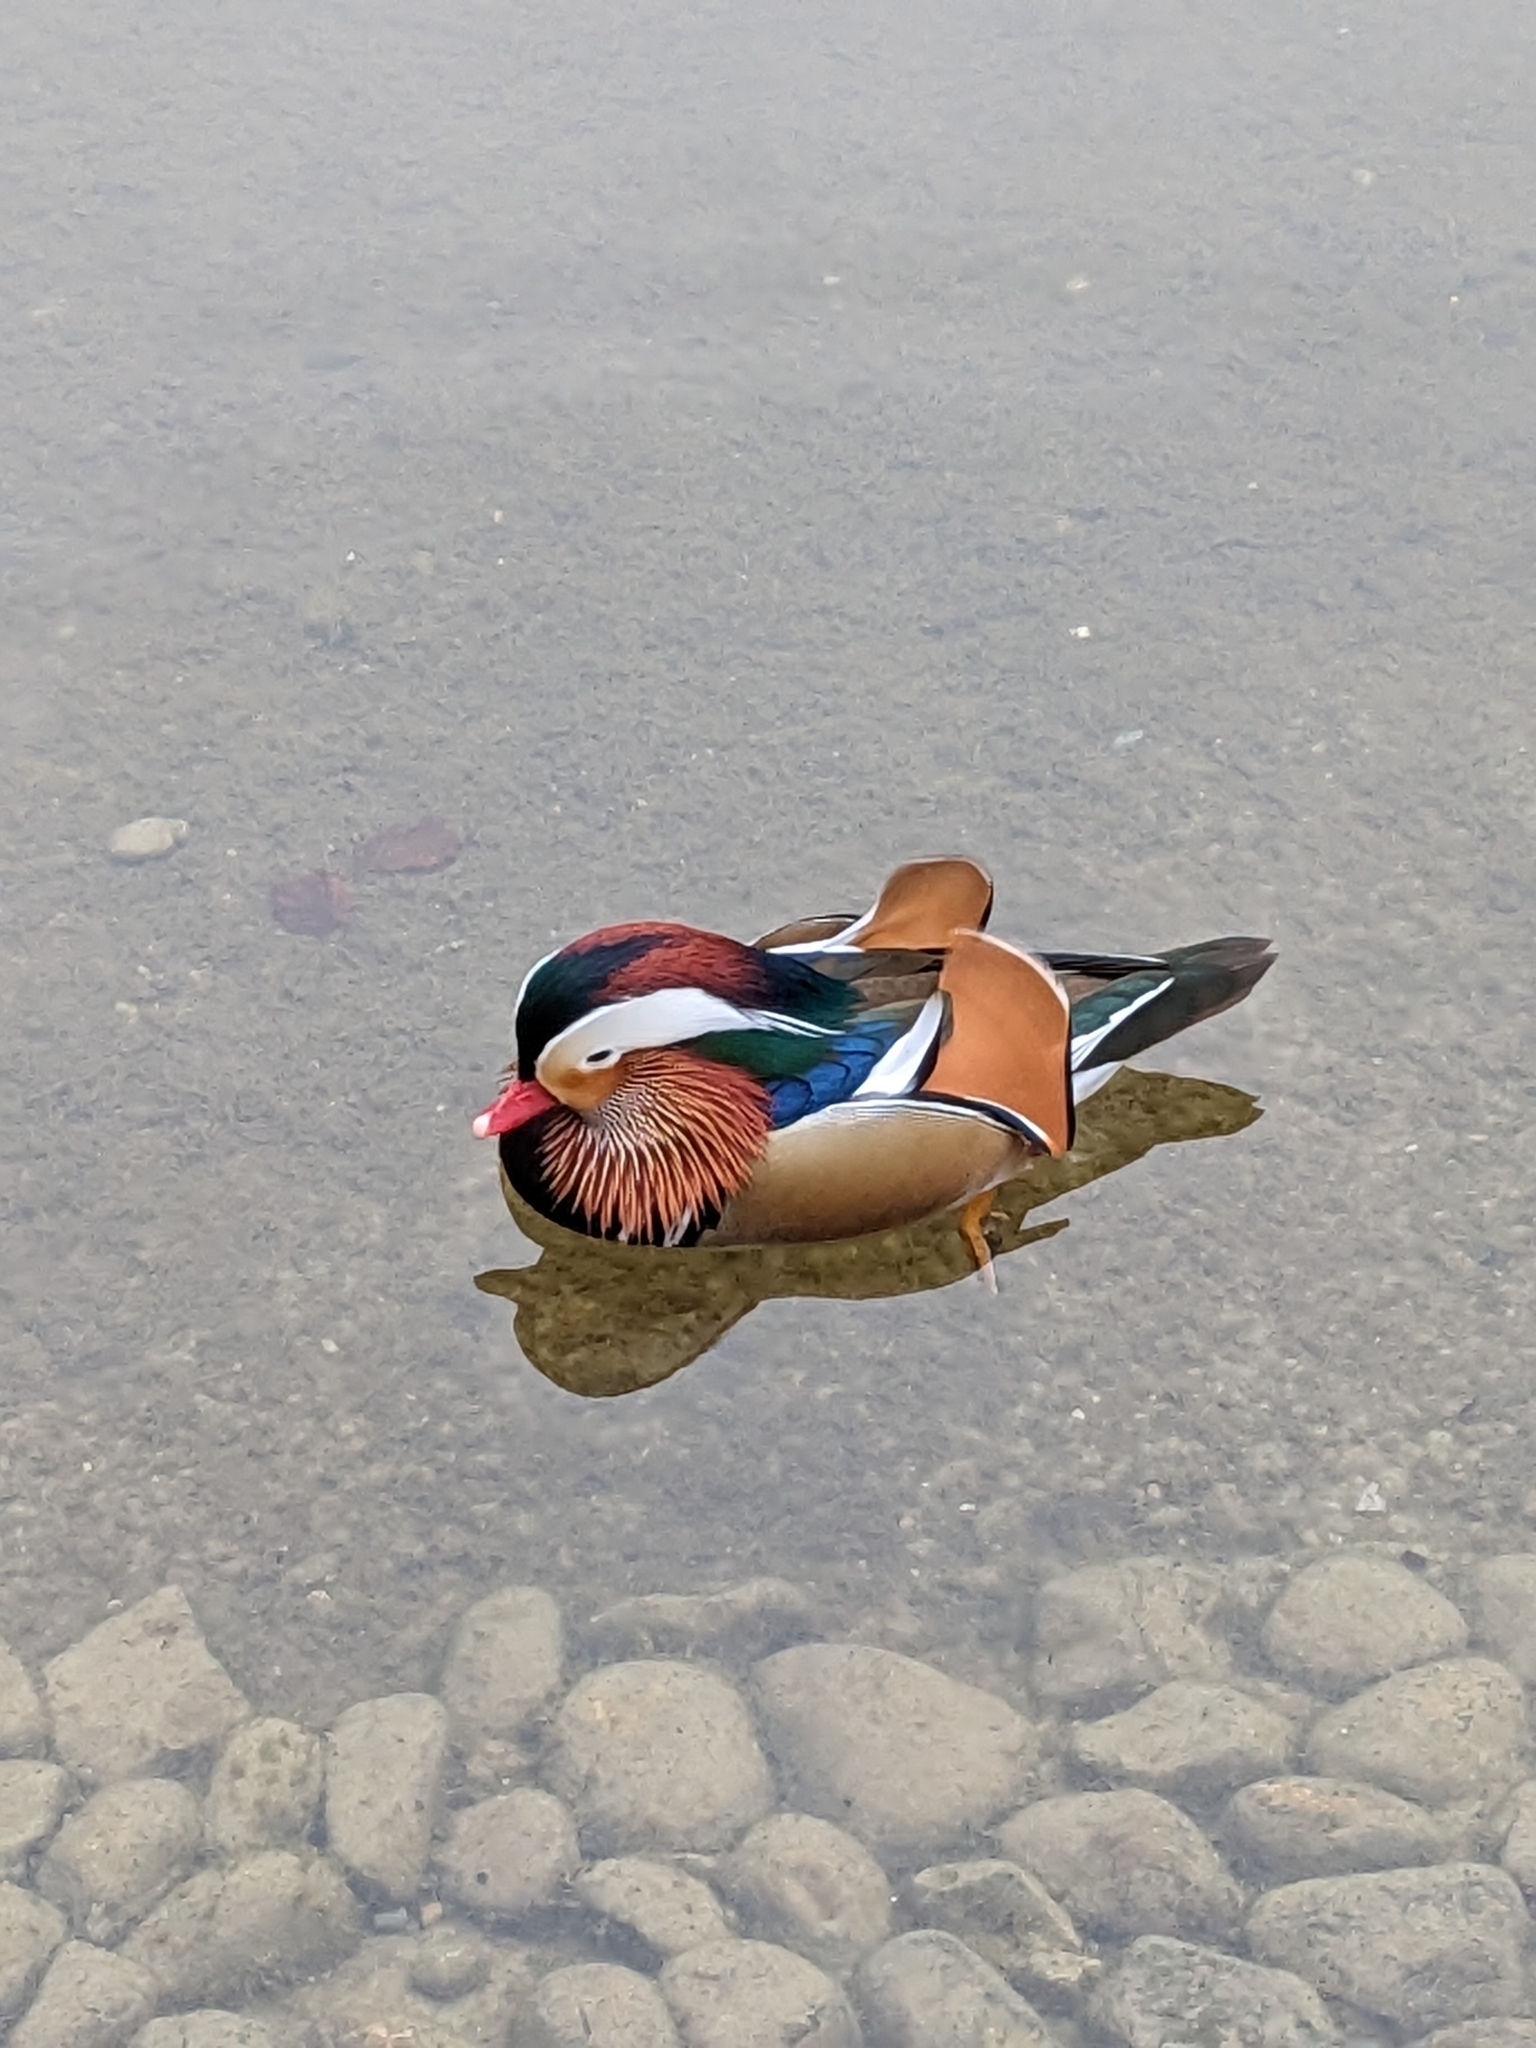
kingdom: Animalia
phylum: Chordata
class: Aves
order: Anseriformes
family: Anatidae
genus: Aix
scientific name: Aix galericulata
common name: Mandarin duck
